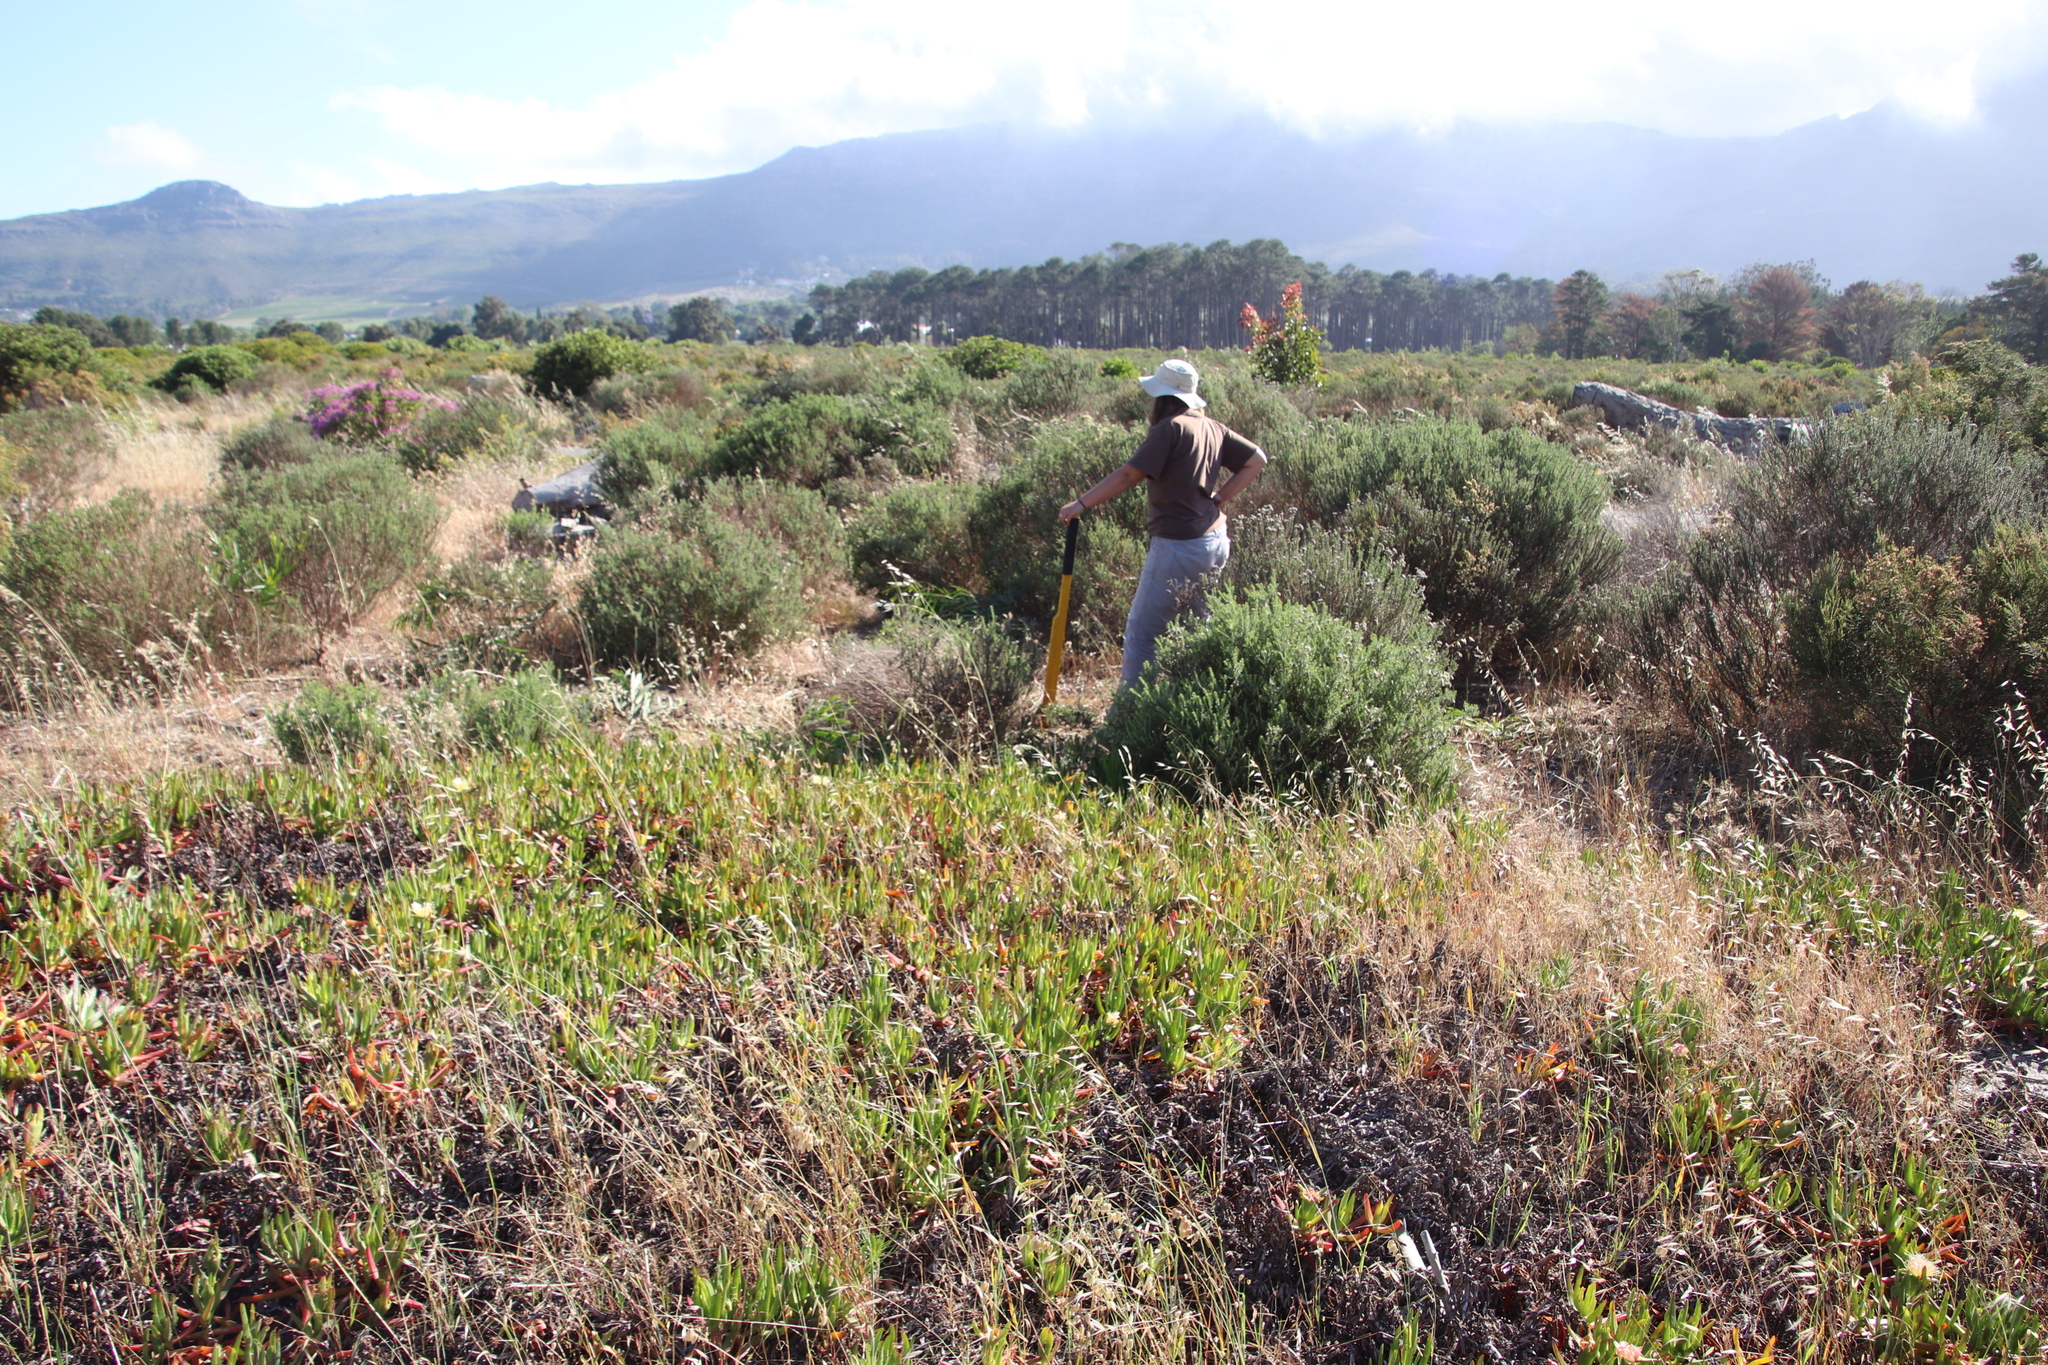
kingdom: Plantae
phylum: Tracheophyta
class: Magnoliopsida
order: Caryophyllales
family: Aizoaceae
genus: Carpobrotus
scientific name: Carpobrotus edulis
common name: Hottentot-fig
